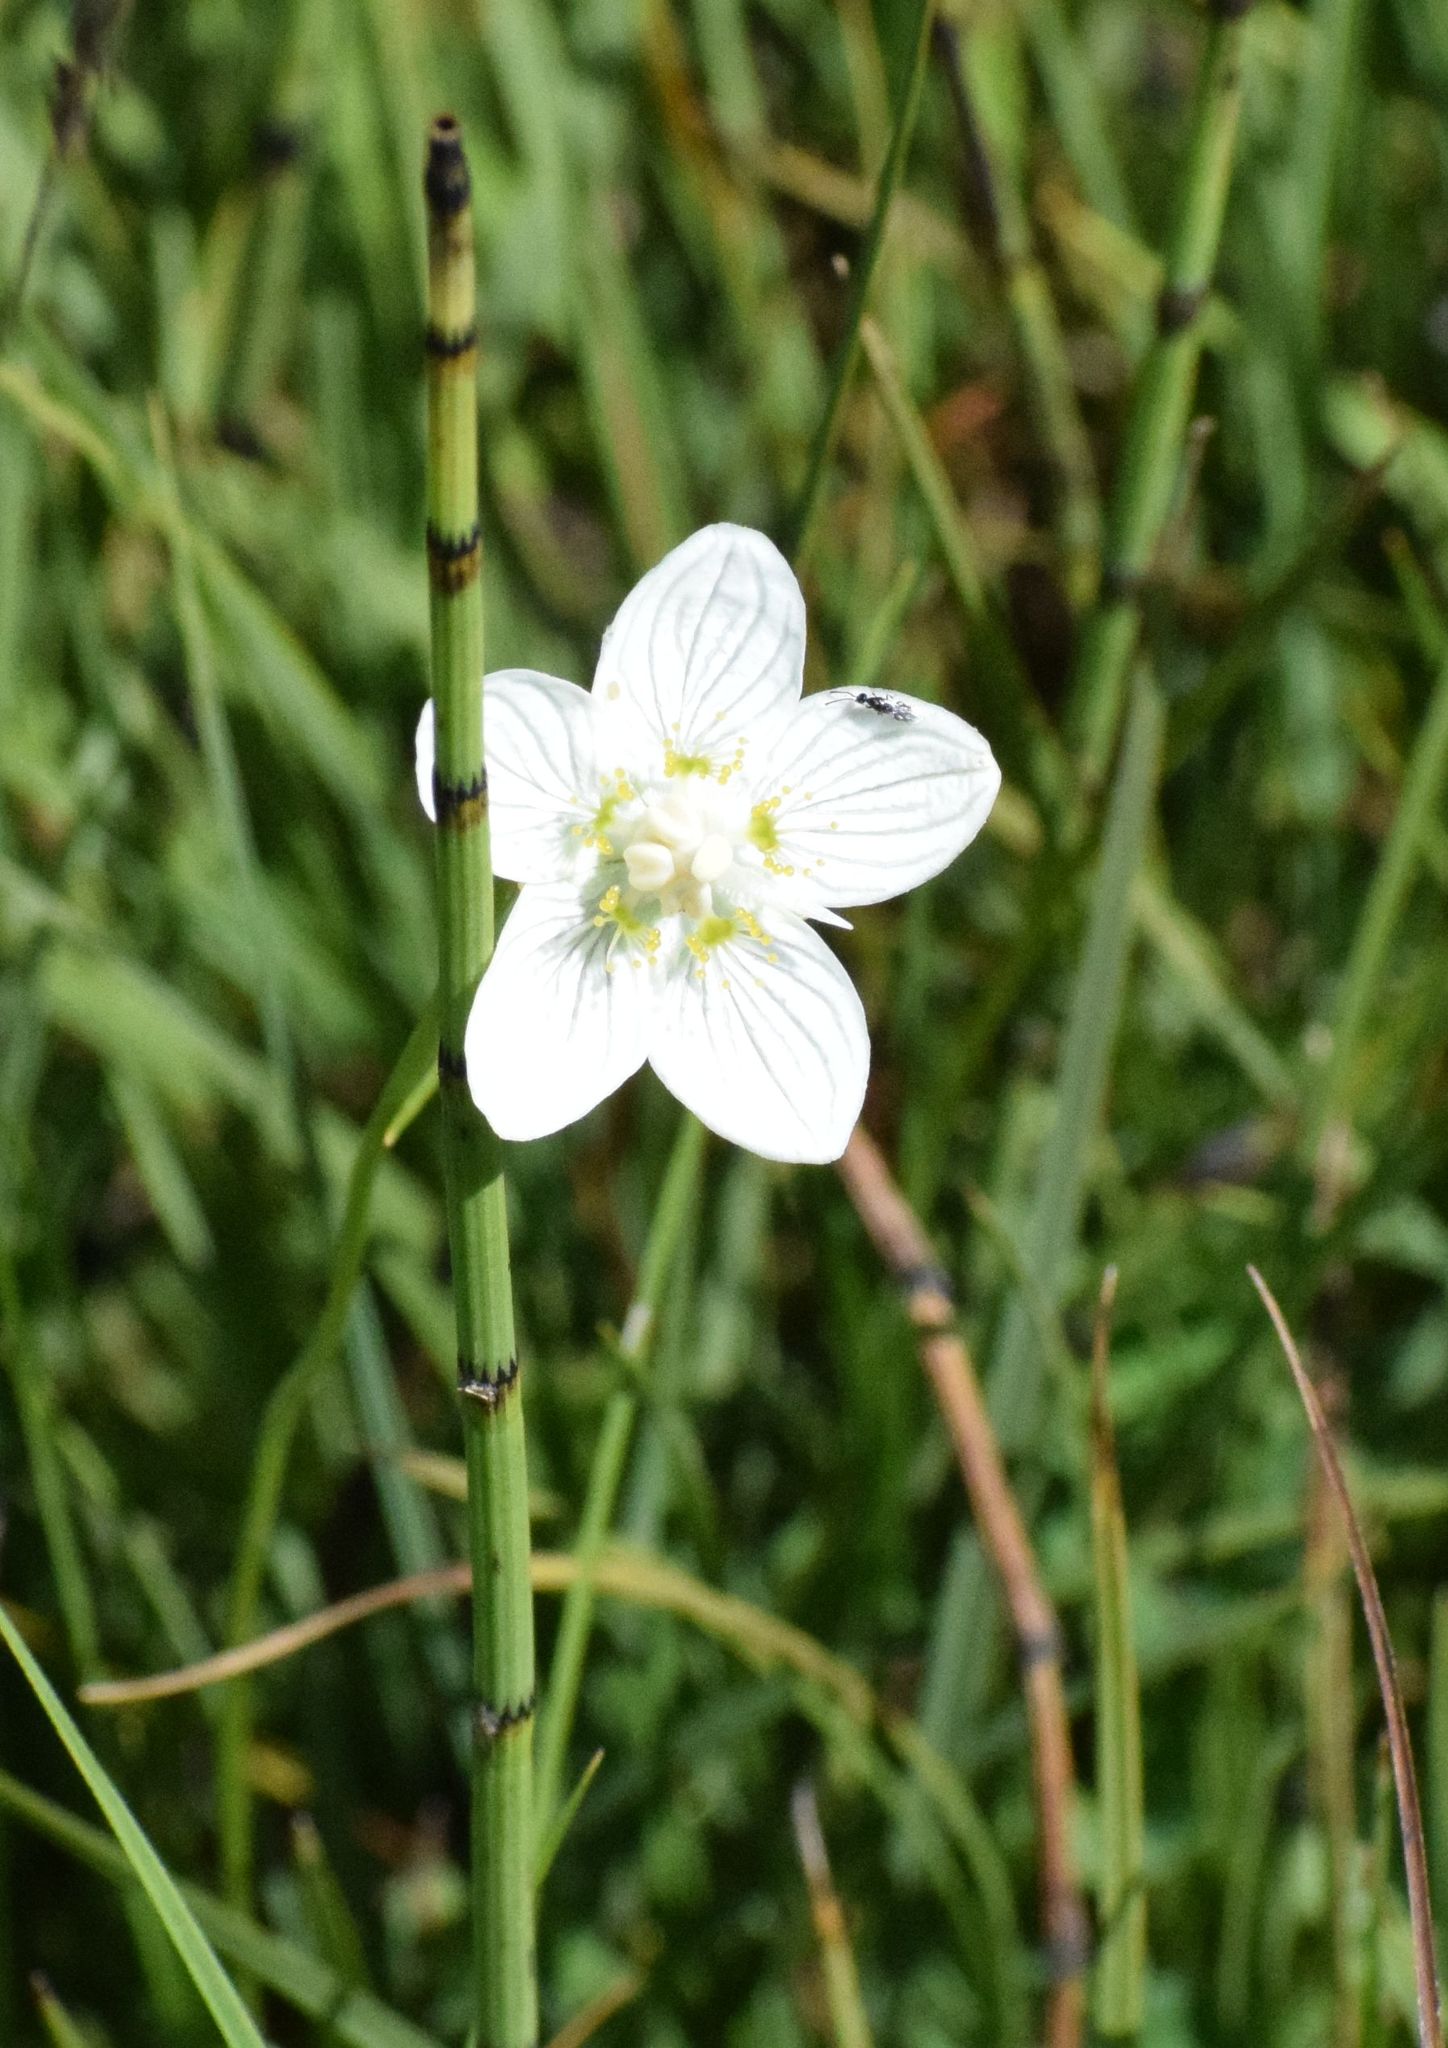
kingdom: Plantae
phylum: Tracheophyta
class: Magnoliopsida
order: Celastrales
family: Parnassiaceae
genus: Parnassia
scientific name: Parnassia palustris
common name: Grass-of-parnassus
